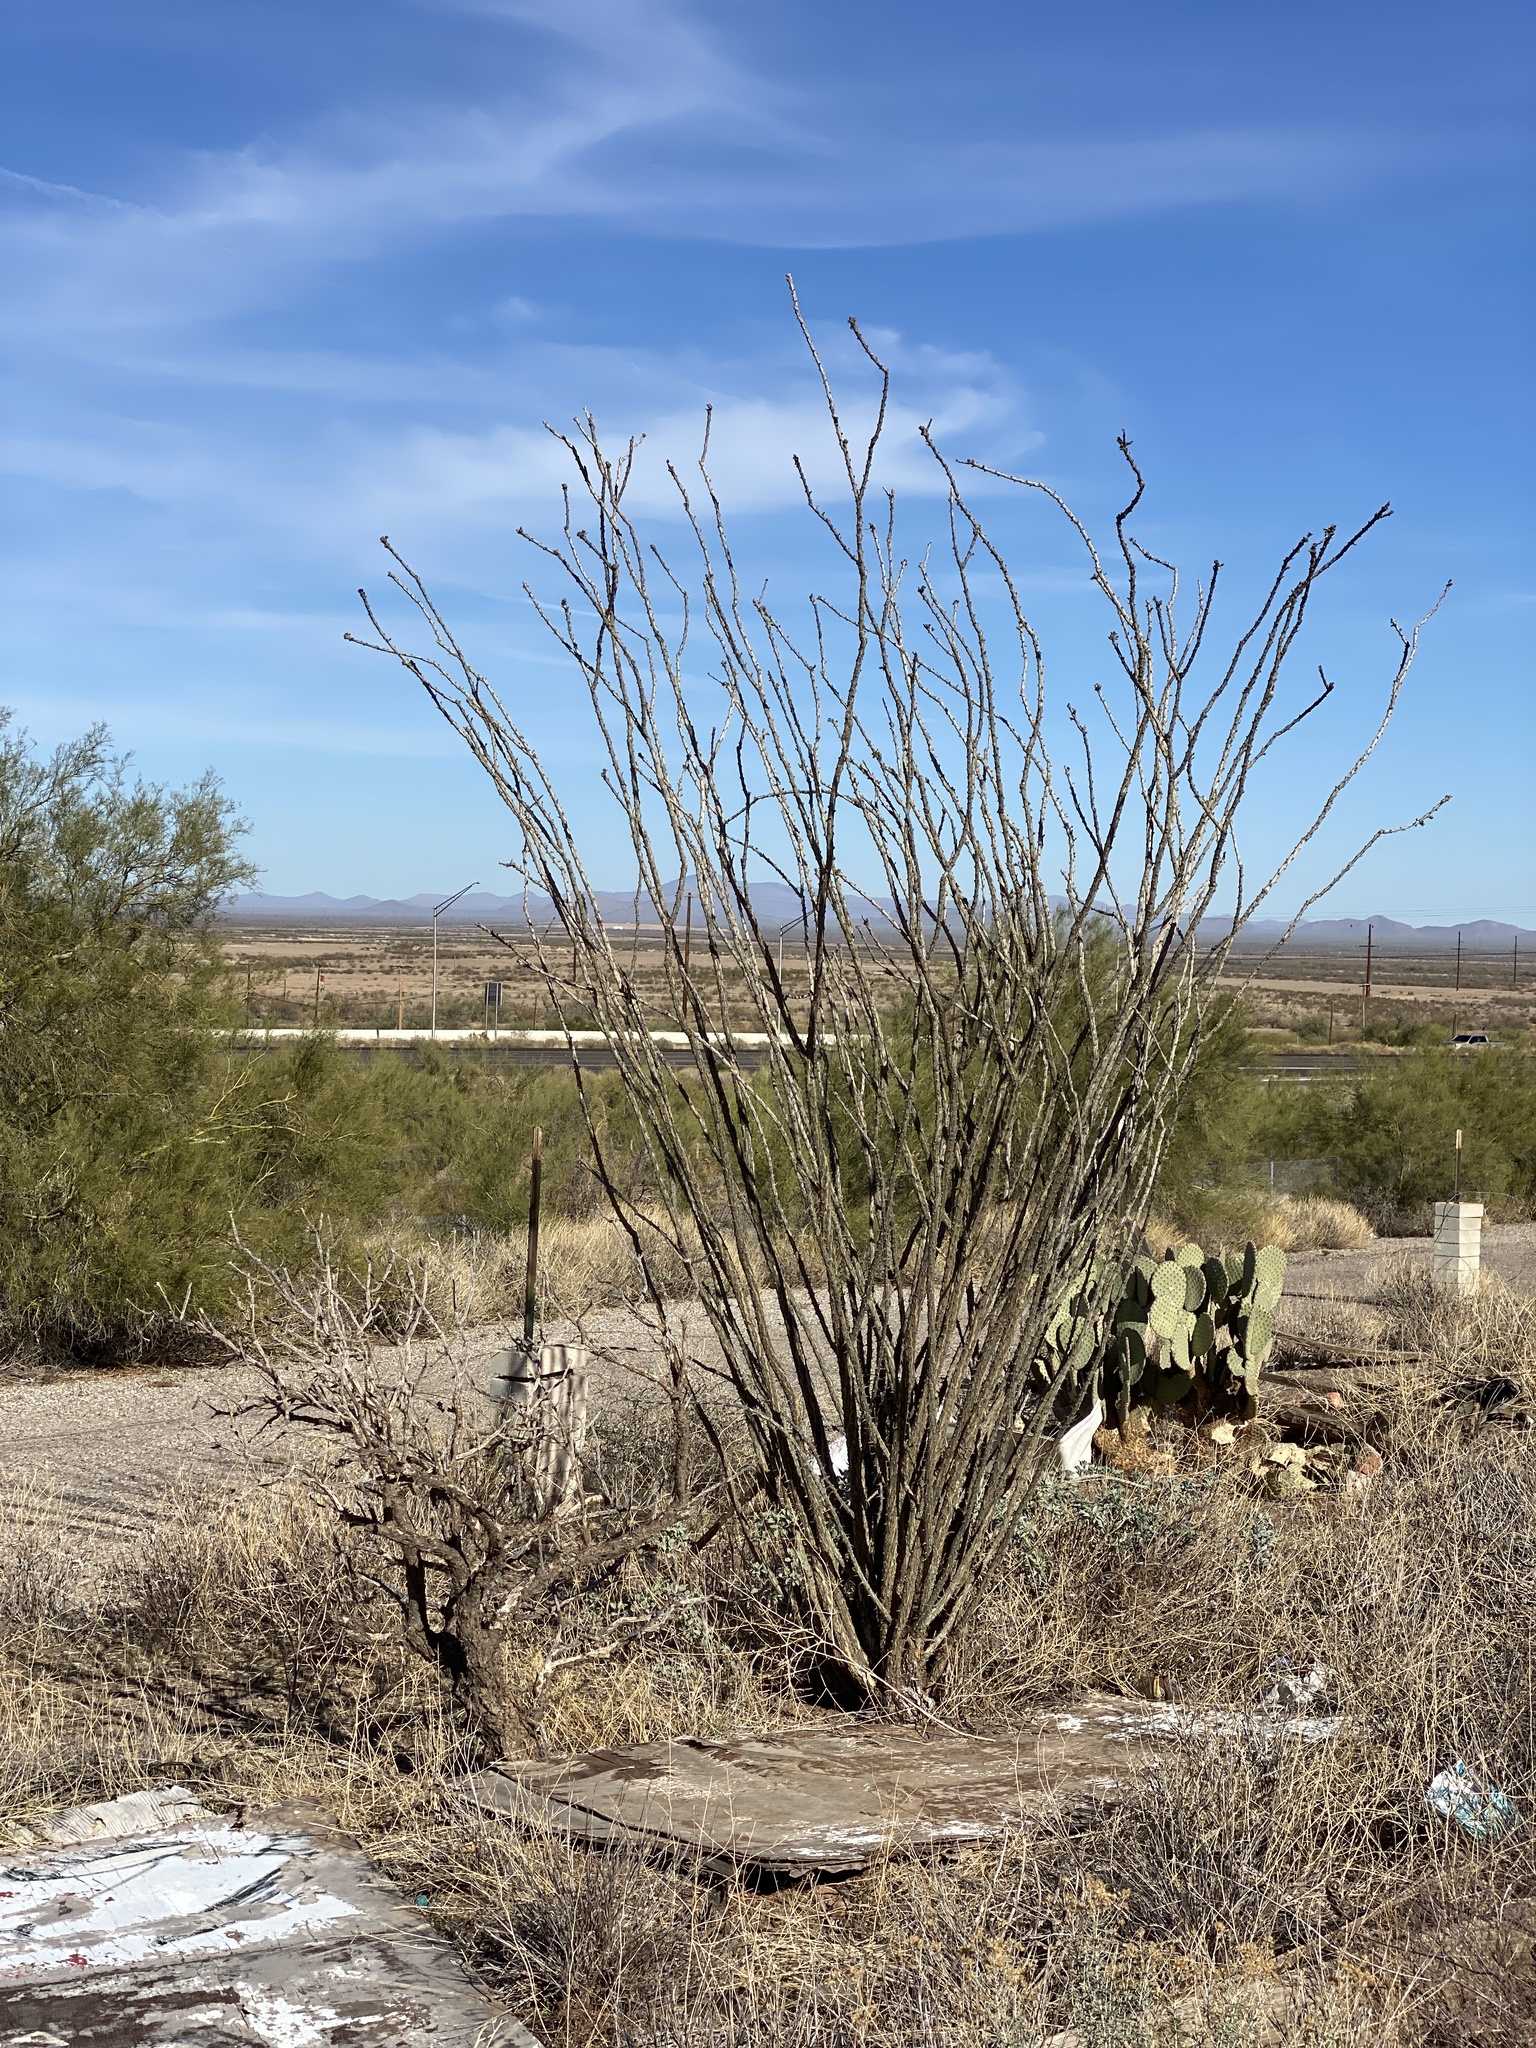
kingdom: Plantae
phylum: Tracheophyta
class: Magnoliopsida
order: Ericales
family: Fouquieriaceae
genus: Fouquieria
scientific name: Fouquieria splendens
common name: Vine-cactus
